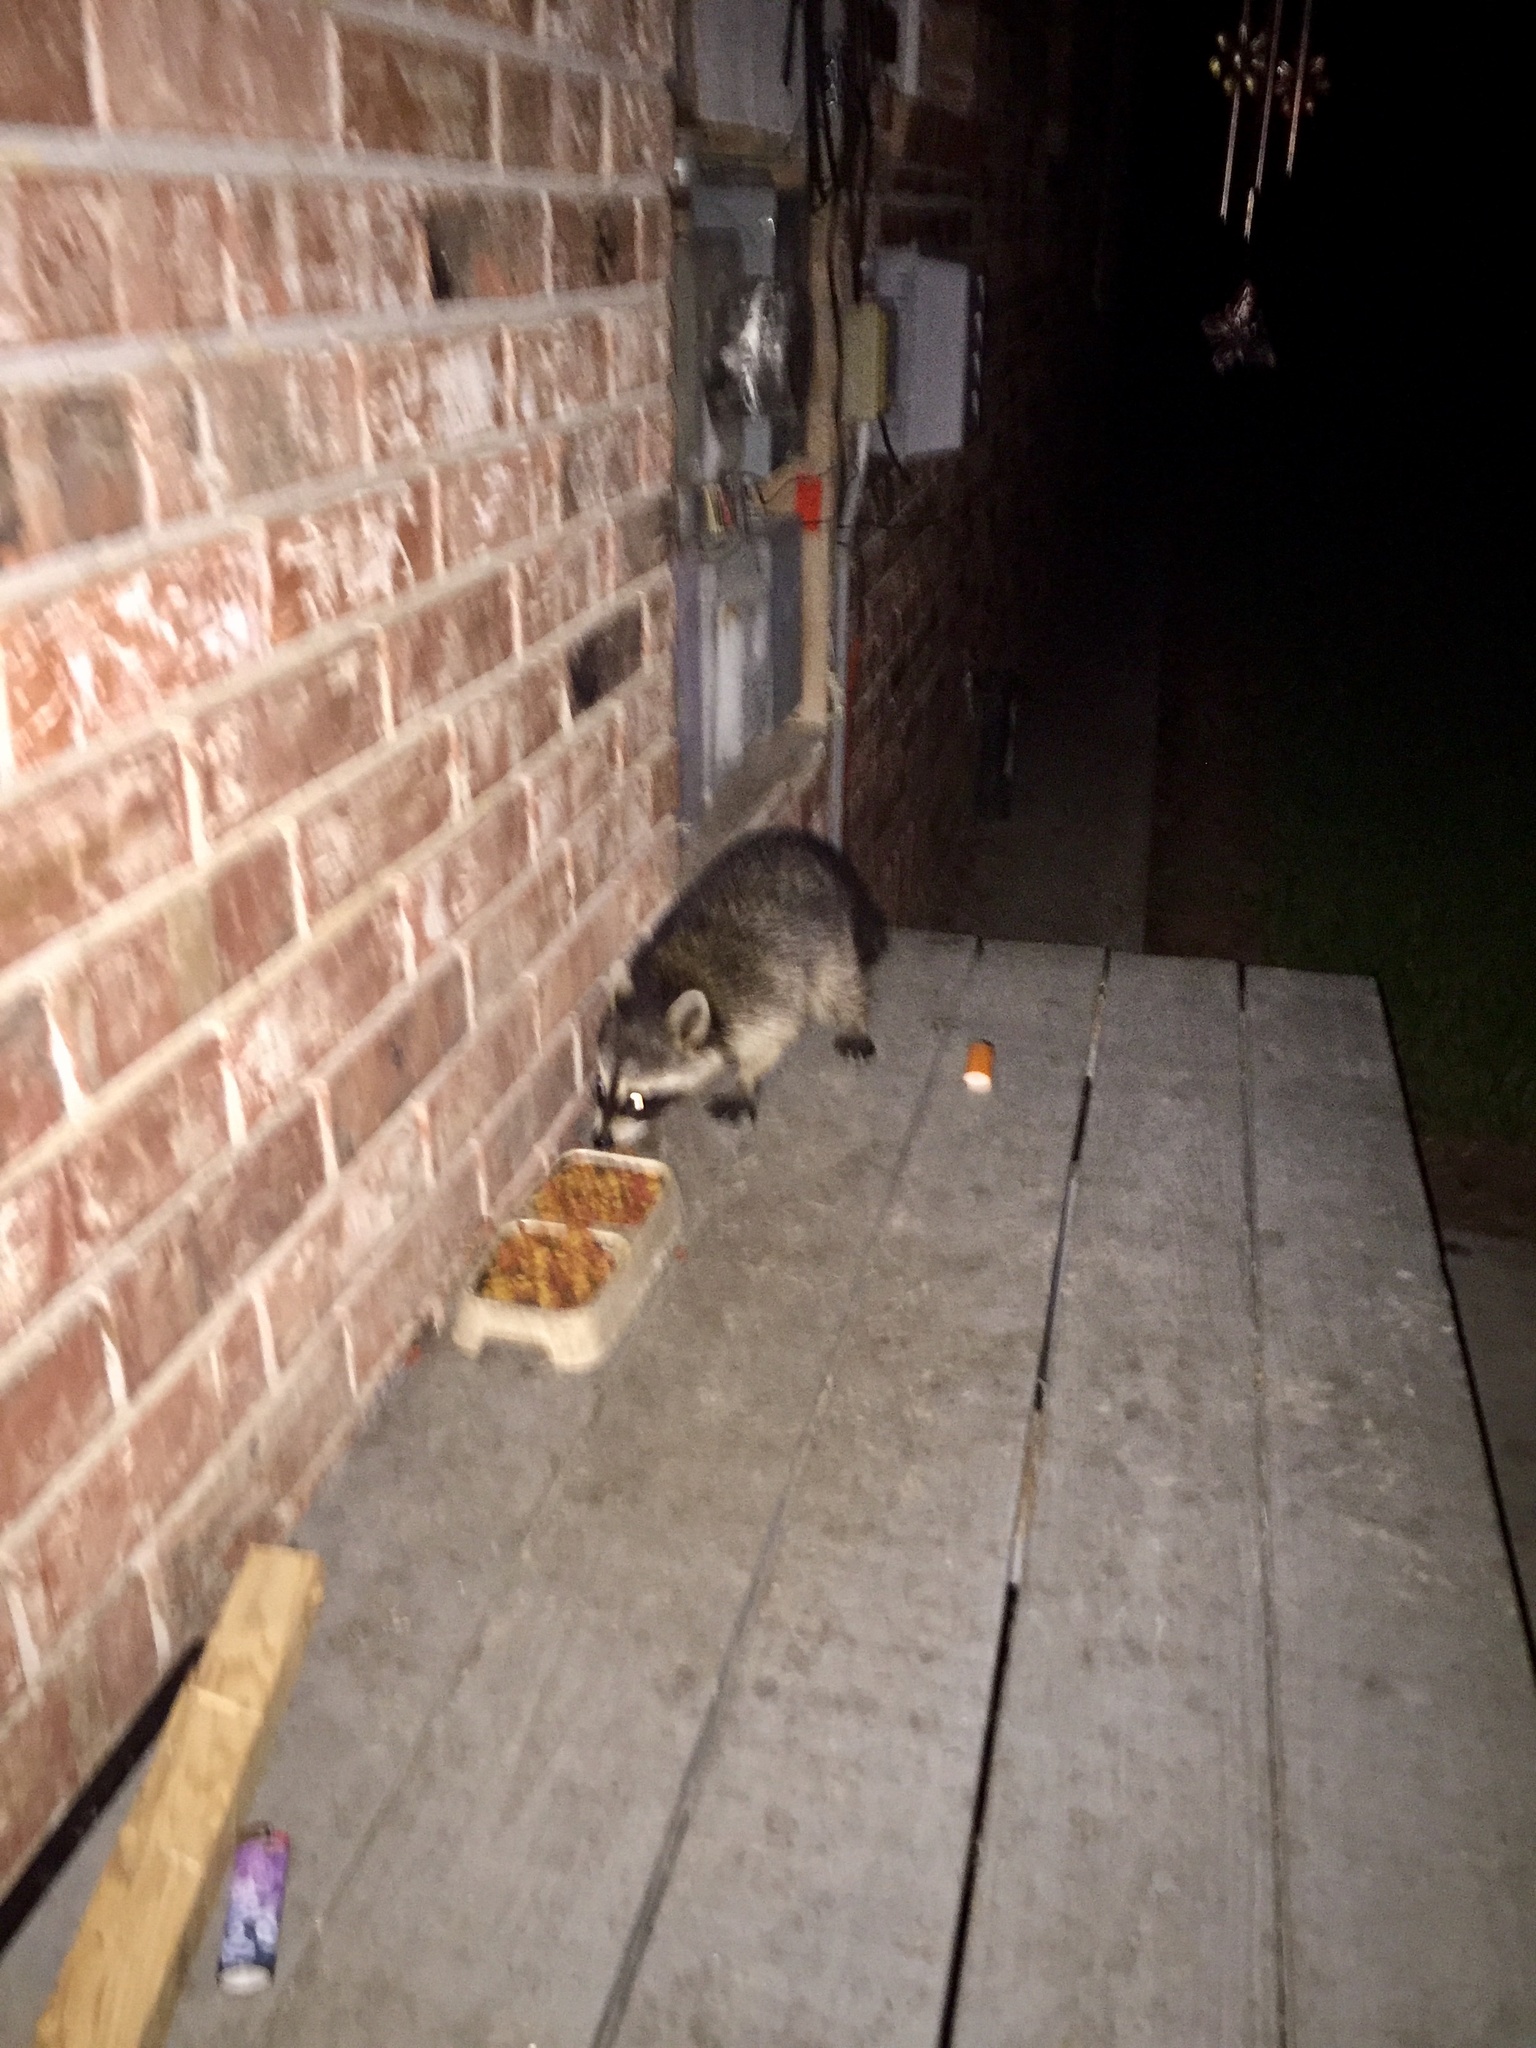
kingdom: Animalia
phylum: Chordata
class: Mammalia
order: Carnivora
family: Procyonidae
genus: Procyon
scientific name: Procyon lotor
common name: Raccoon
